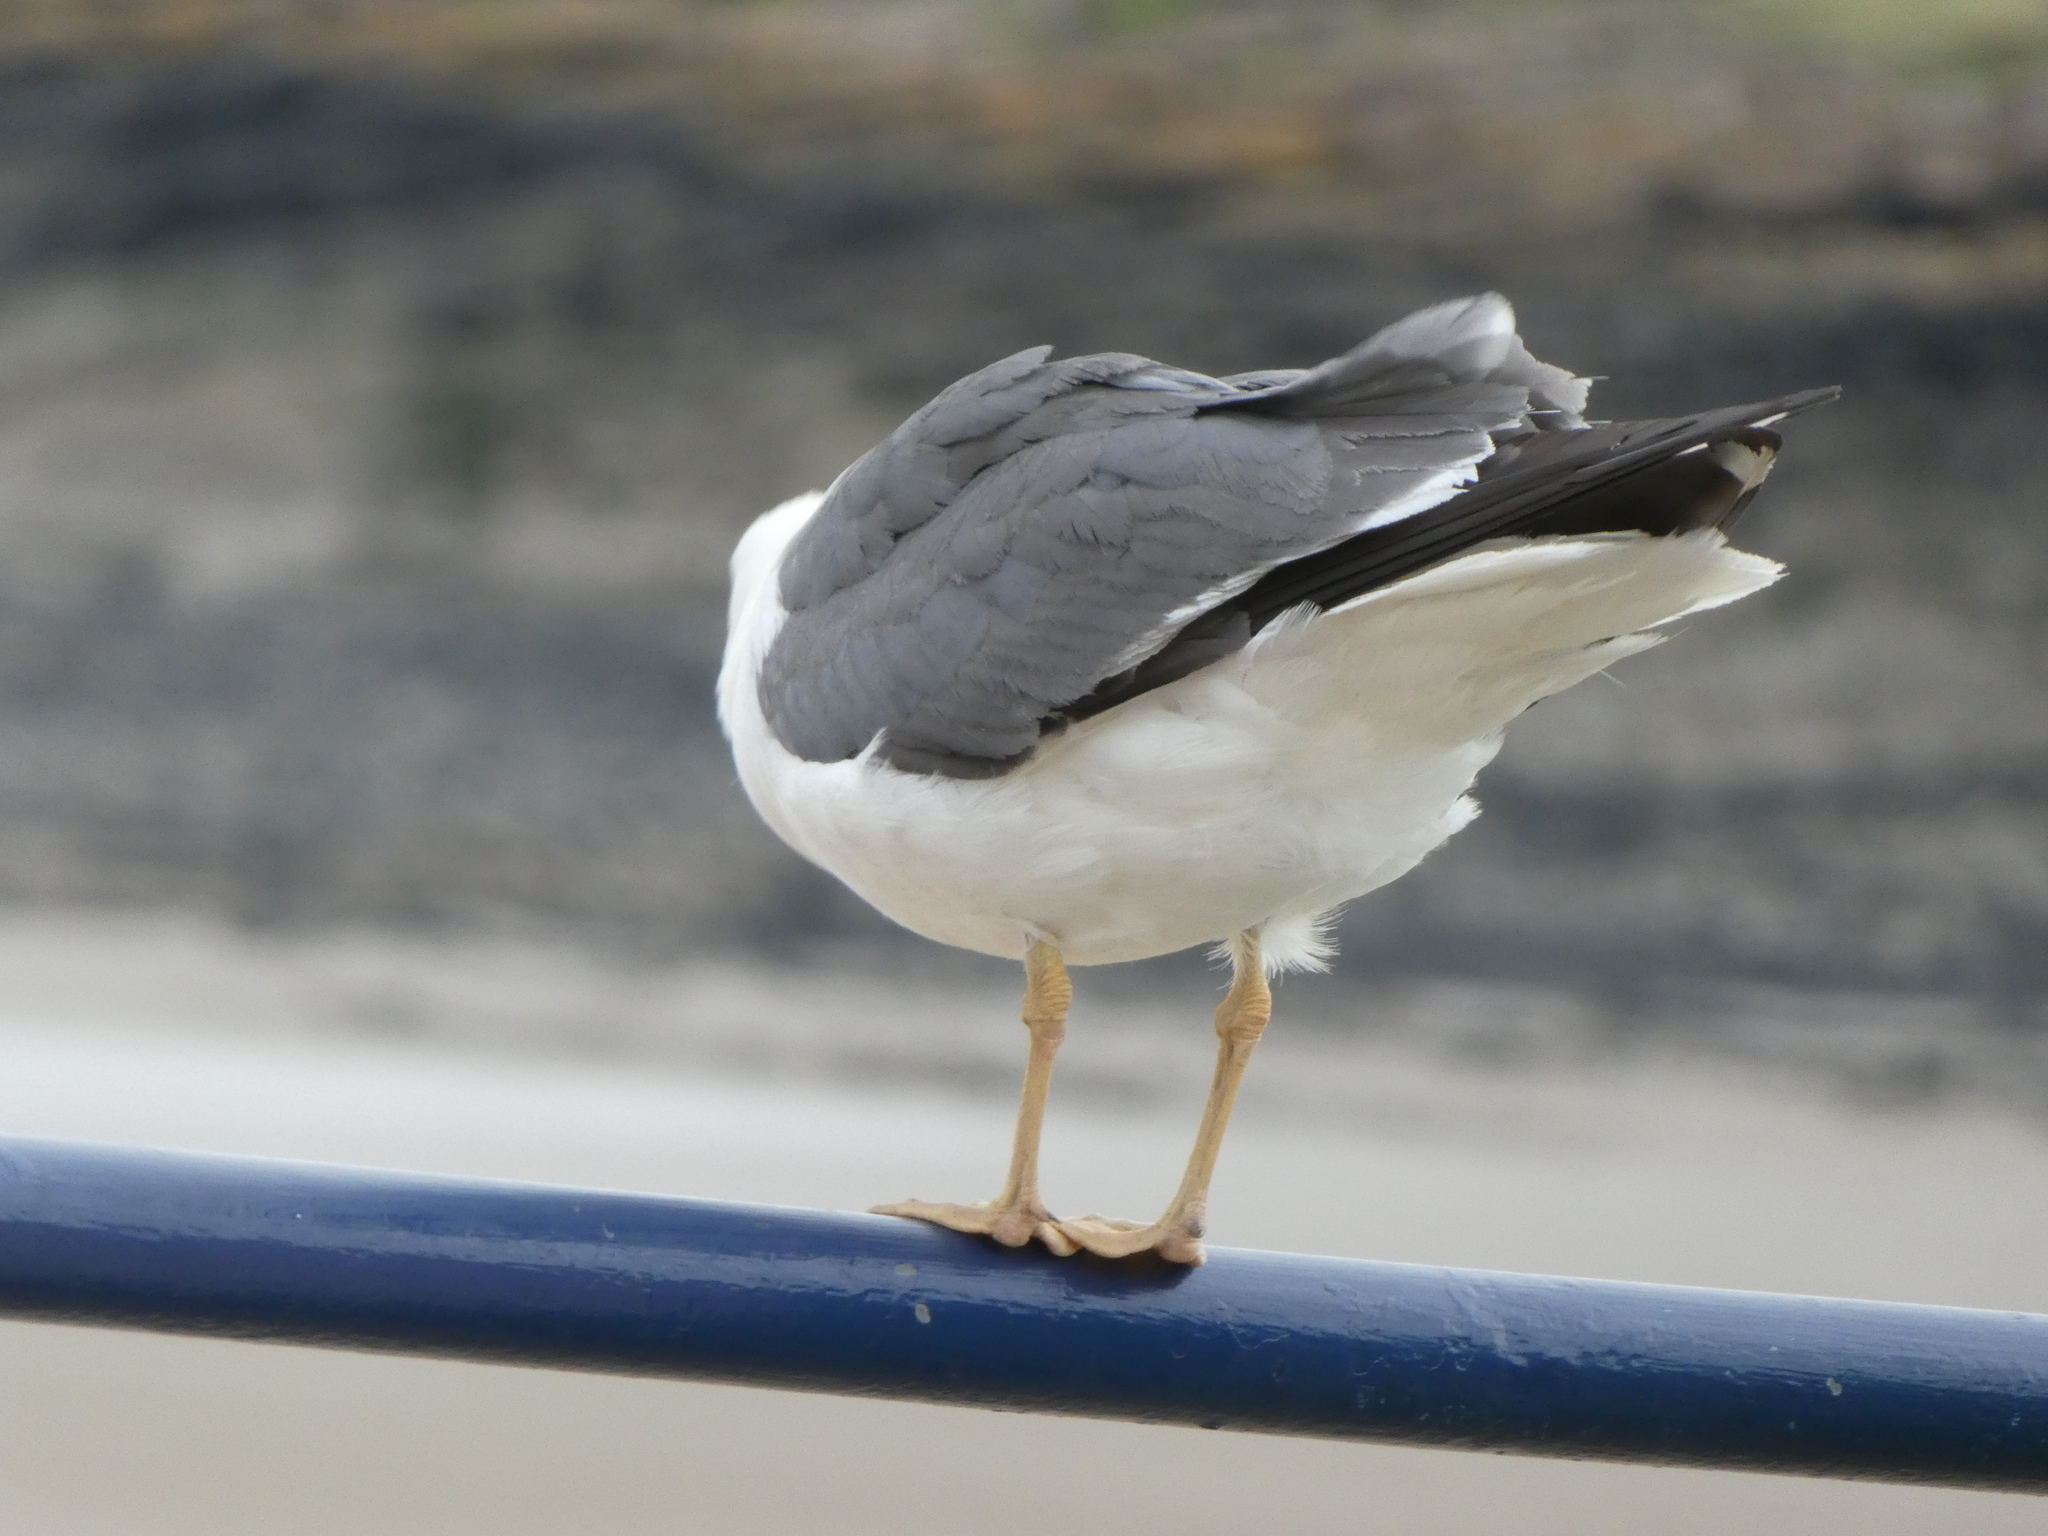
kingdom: Animalia
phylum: Chordata
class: Aves
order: Charadriiformes
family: Laridae
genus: Larus
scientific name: Larus fuscus
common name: Lesser black-backed gull
